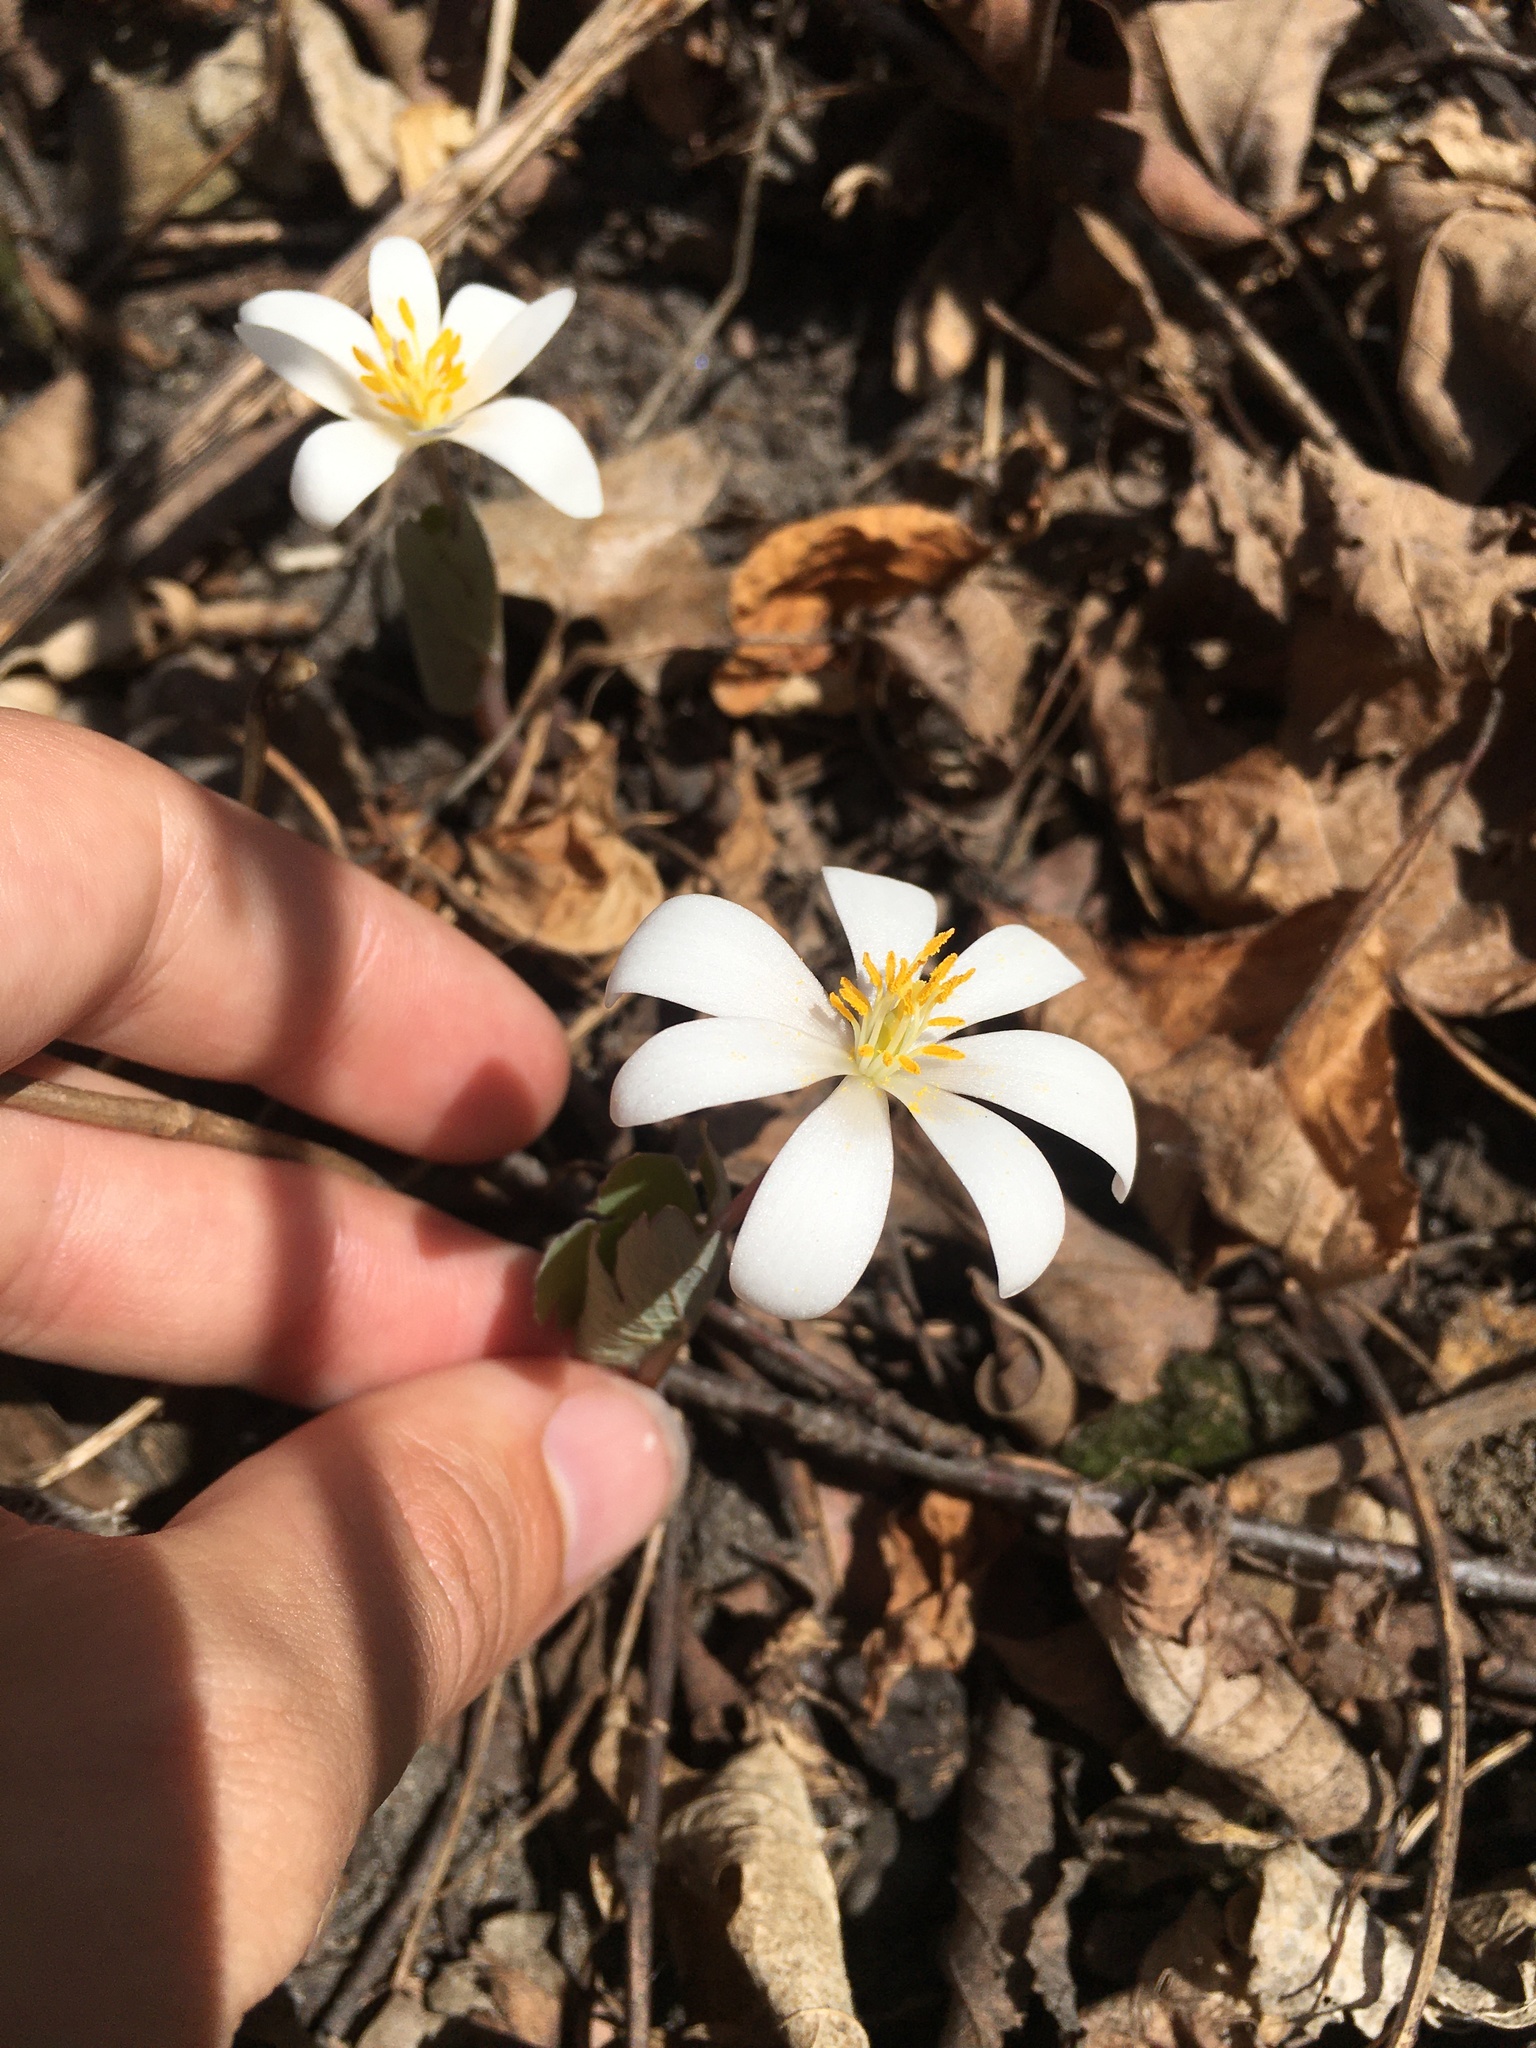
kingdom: Plantae
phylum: Tracheophyta
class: Magnoliopsida
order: Ranunculales
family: Papaveraceae
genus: Sanguinaria
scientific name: Sanguinaria canadensis
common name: Bloodroot
